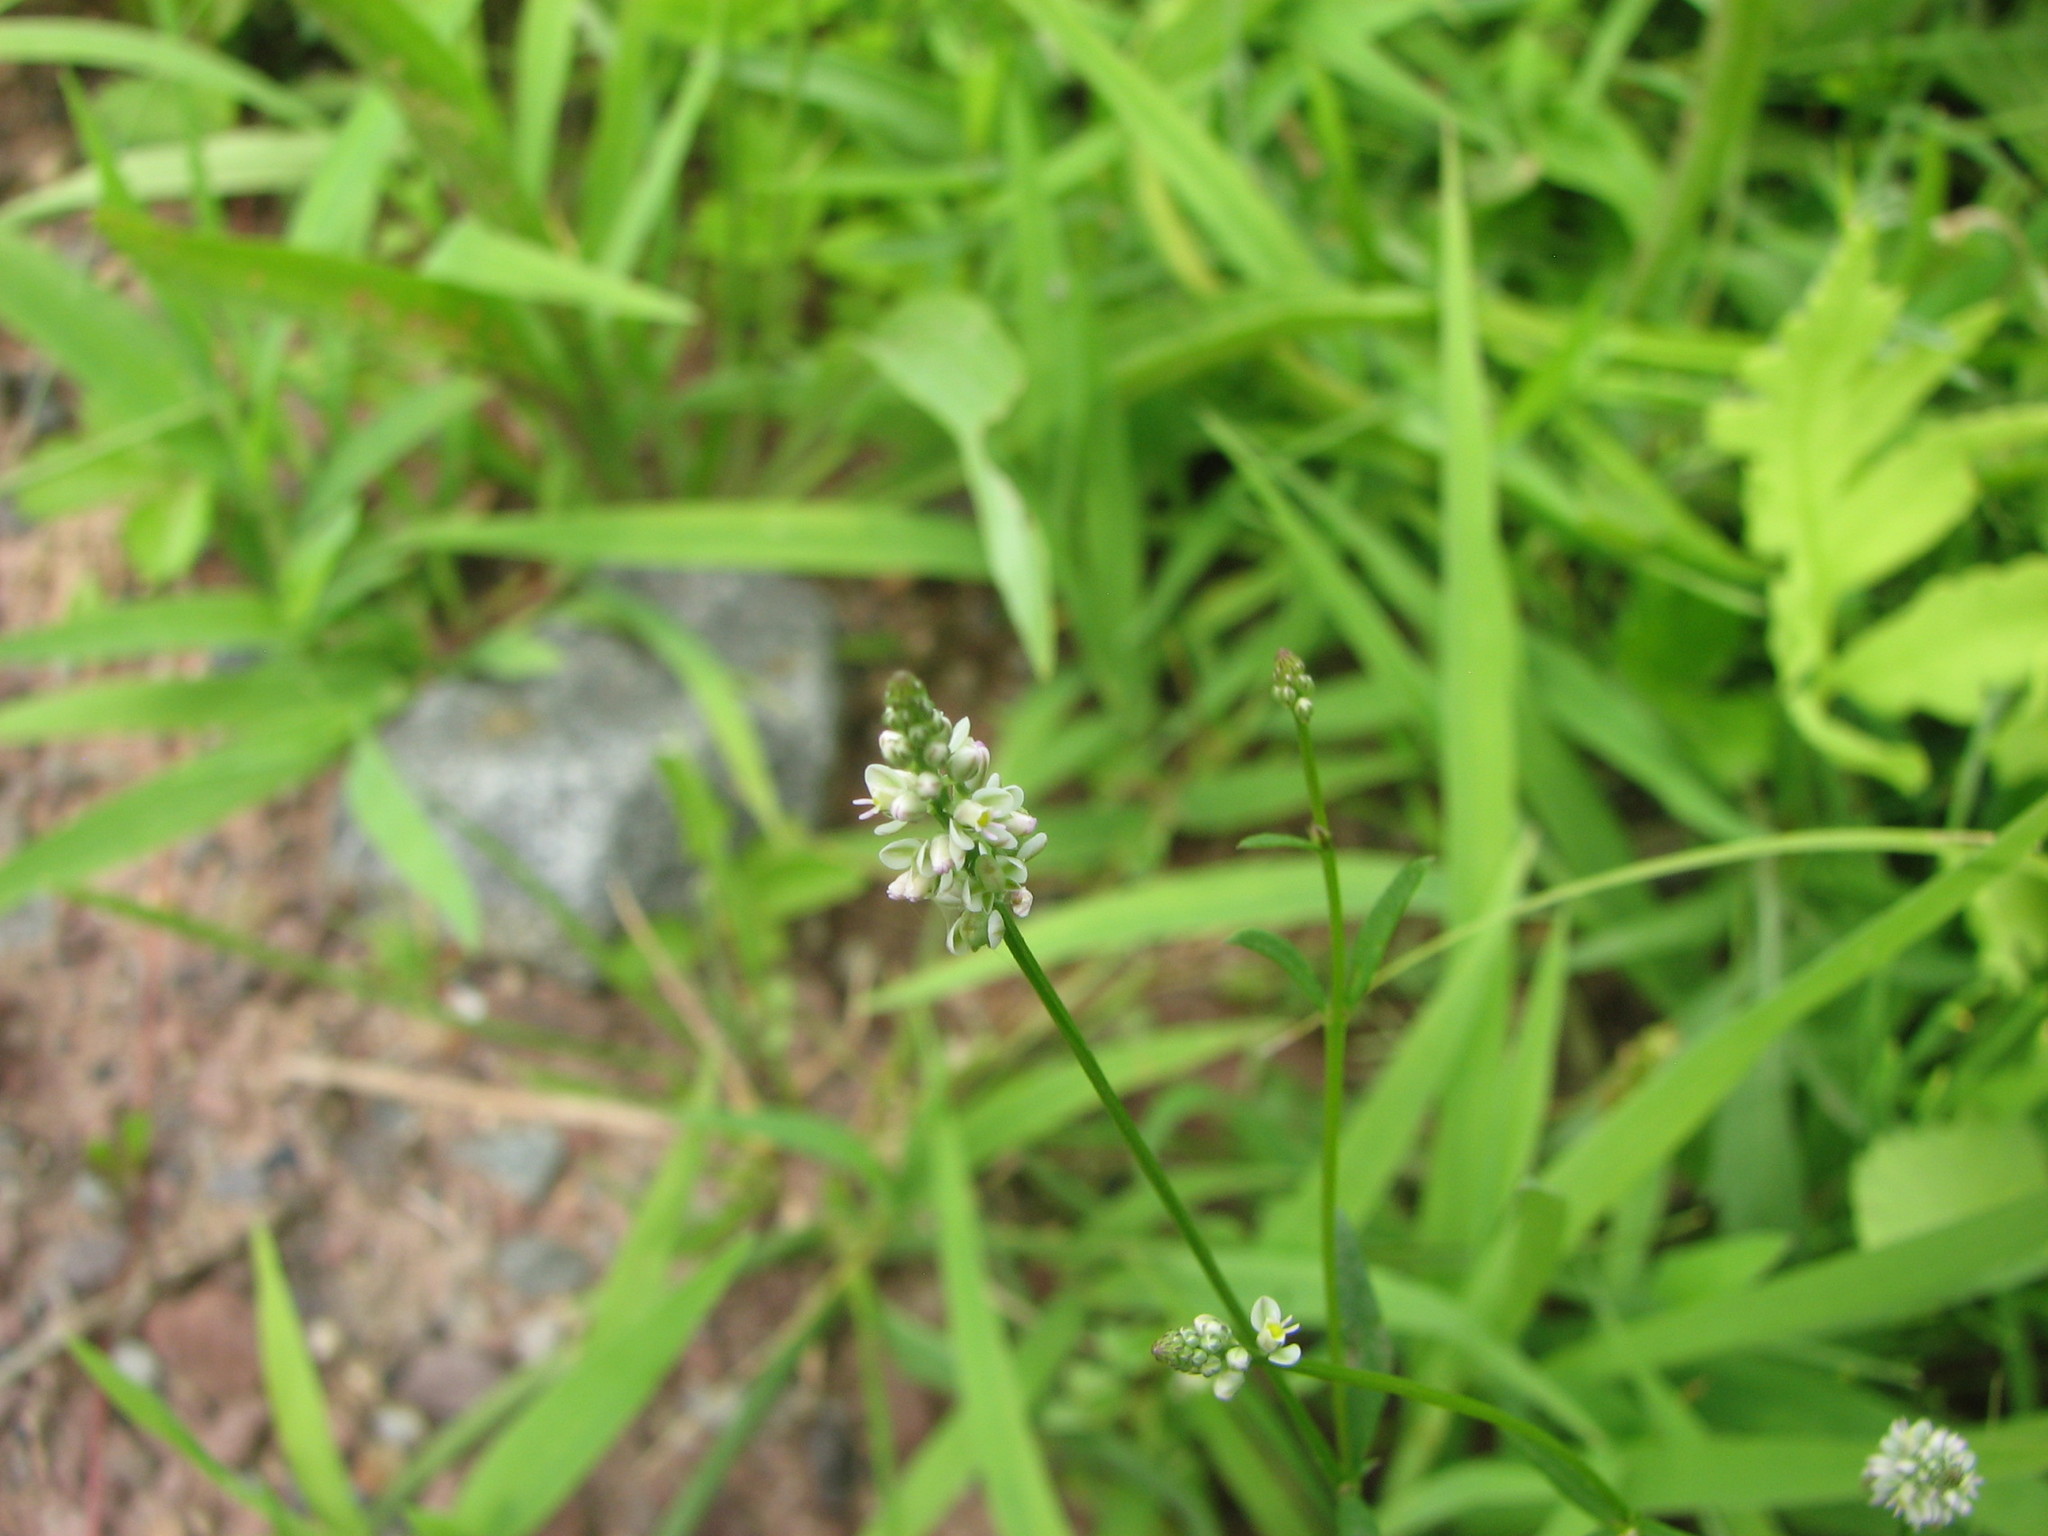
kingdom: Plantae
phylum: Tracheophyta
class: Magnoliopsida
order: Fabales
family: Polygalaceae
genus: Polygala
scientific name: Polygala verticillata
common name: Whorl milkwort
